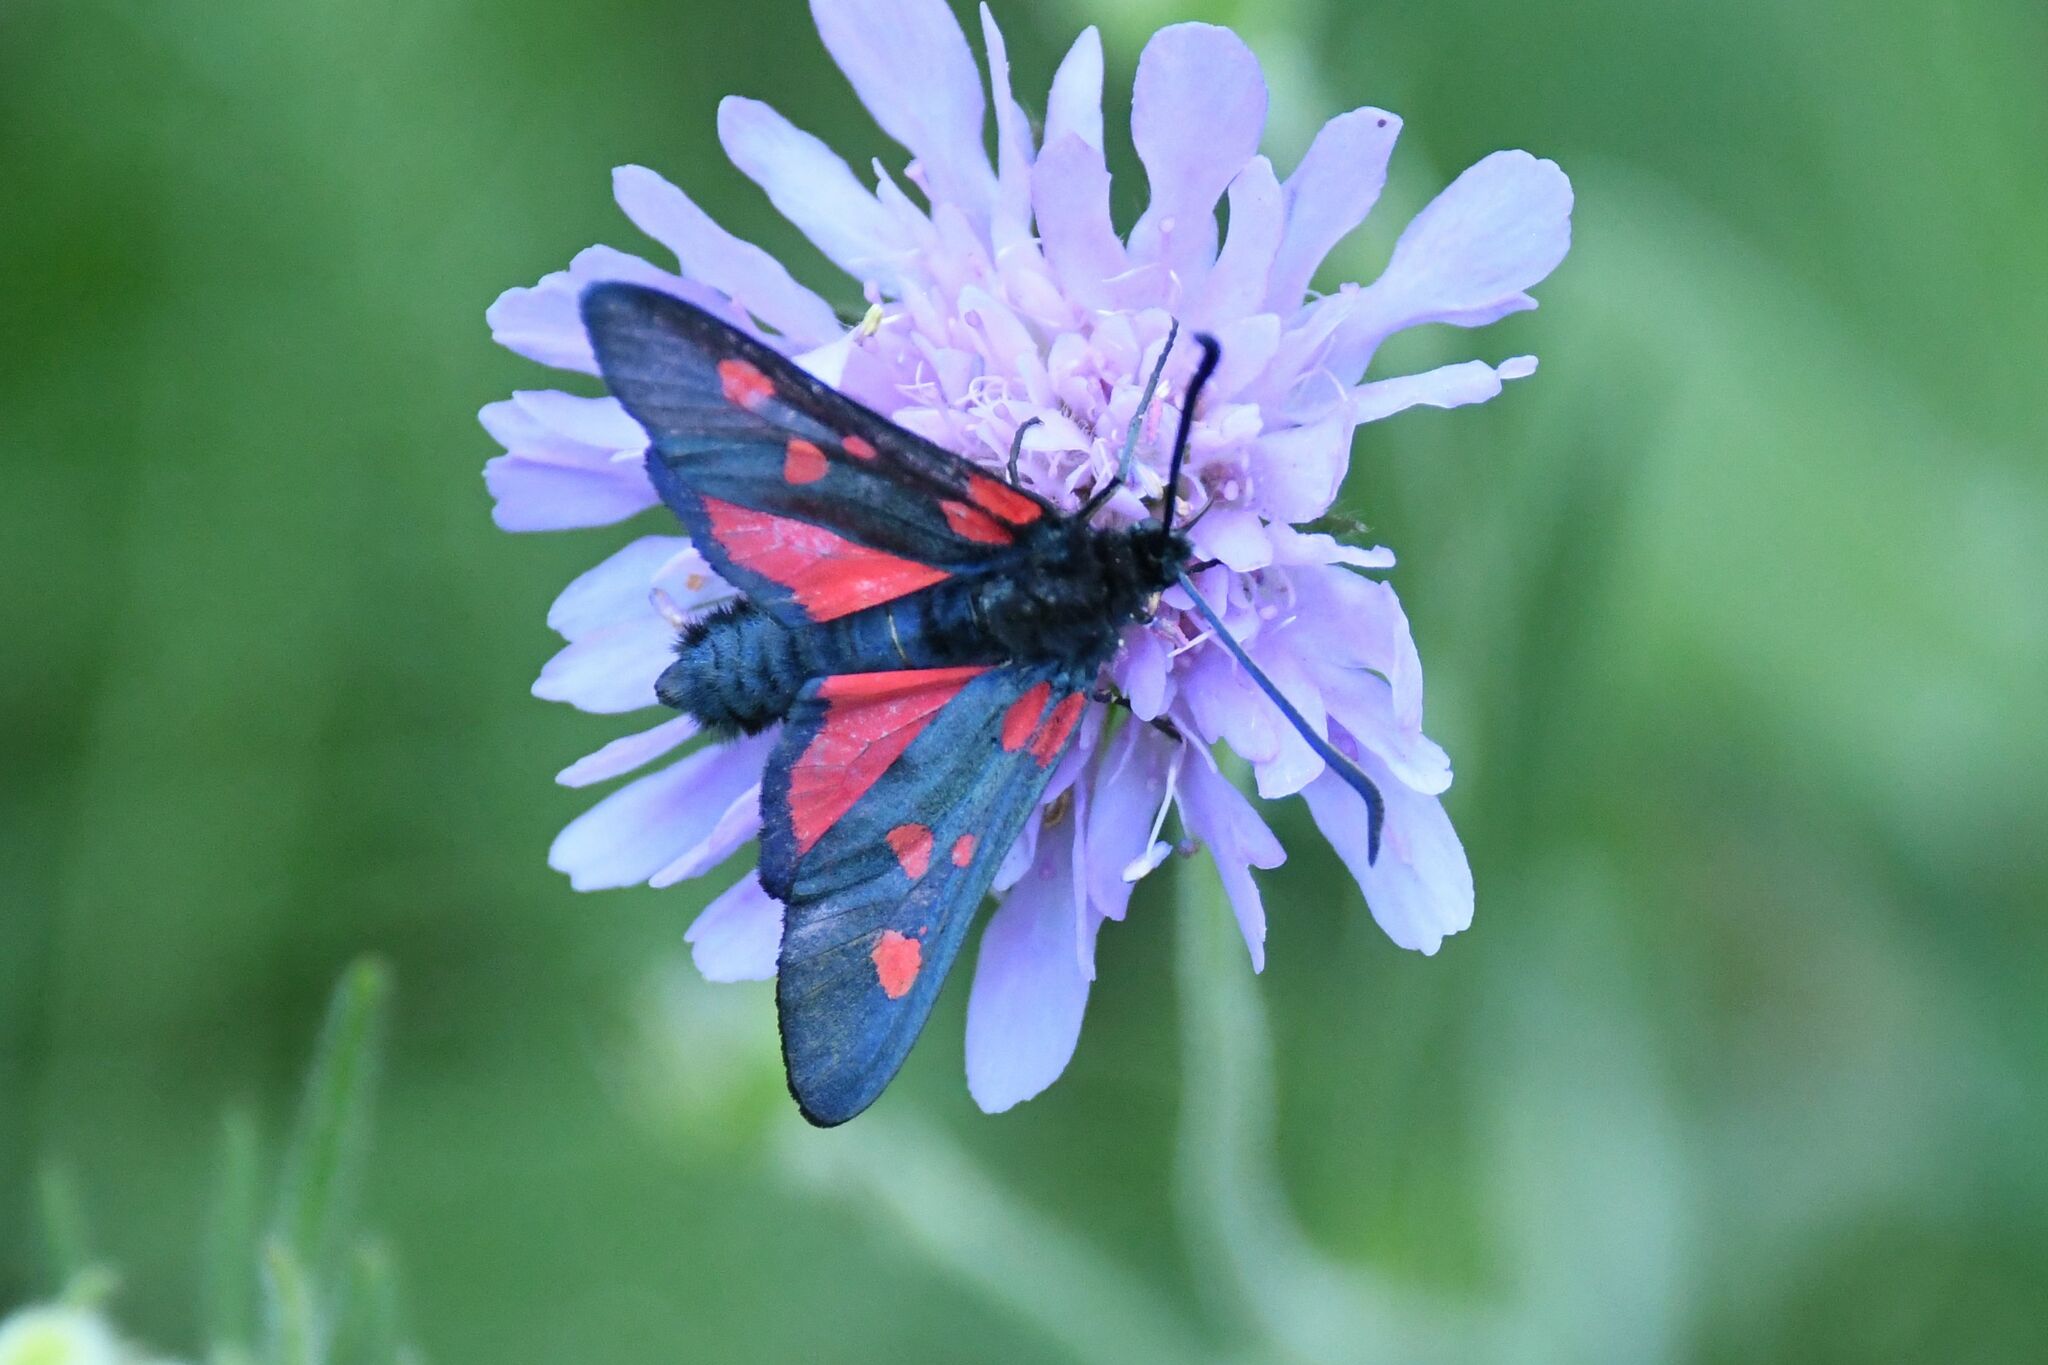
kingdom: Animalia
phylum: Arthropoda
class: Insecta
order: Lepidoptera
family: Zygaenidae
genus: Zygaena
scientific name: Zygaena lonicerae
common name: Narrow-bordered five-spot burnet
